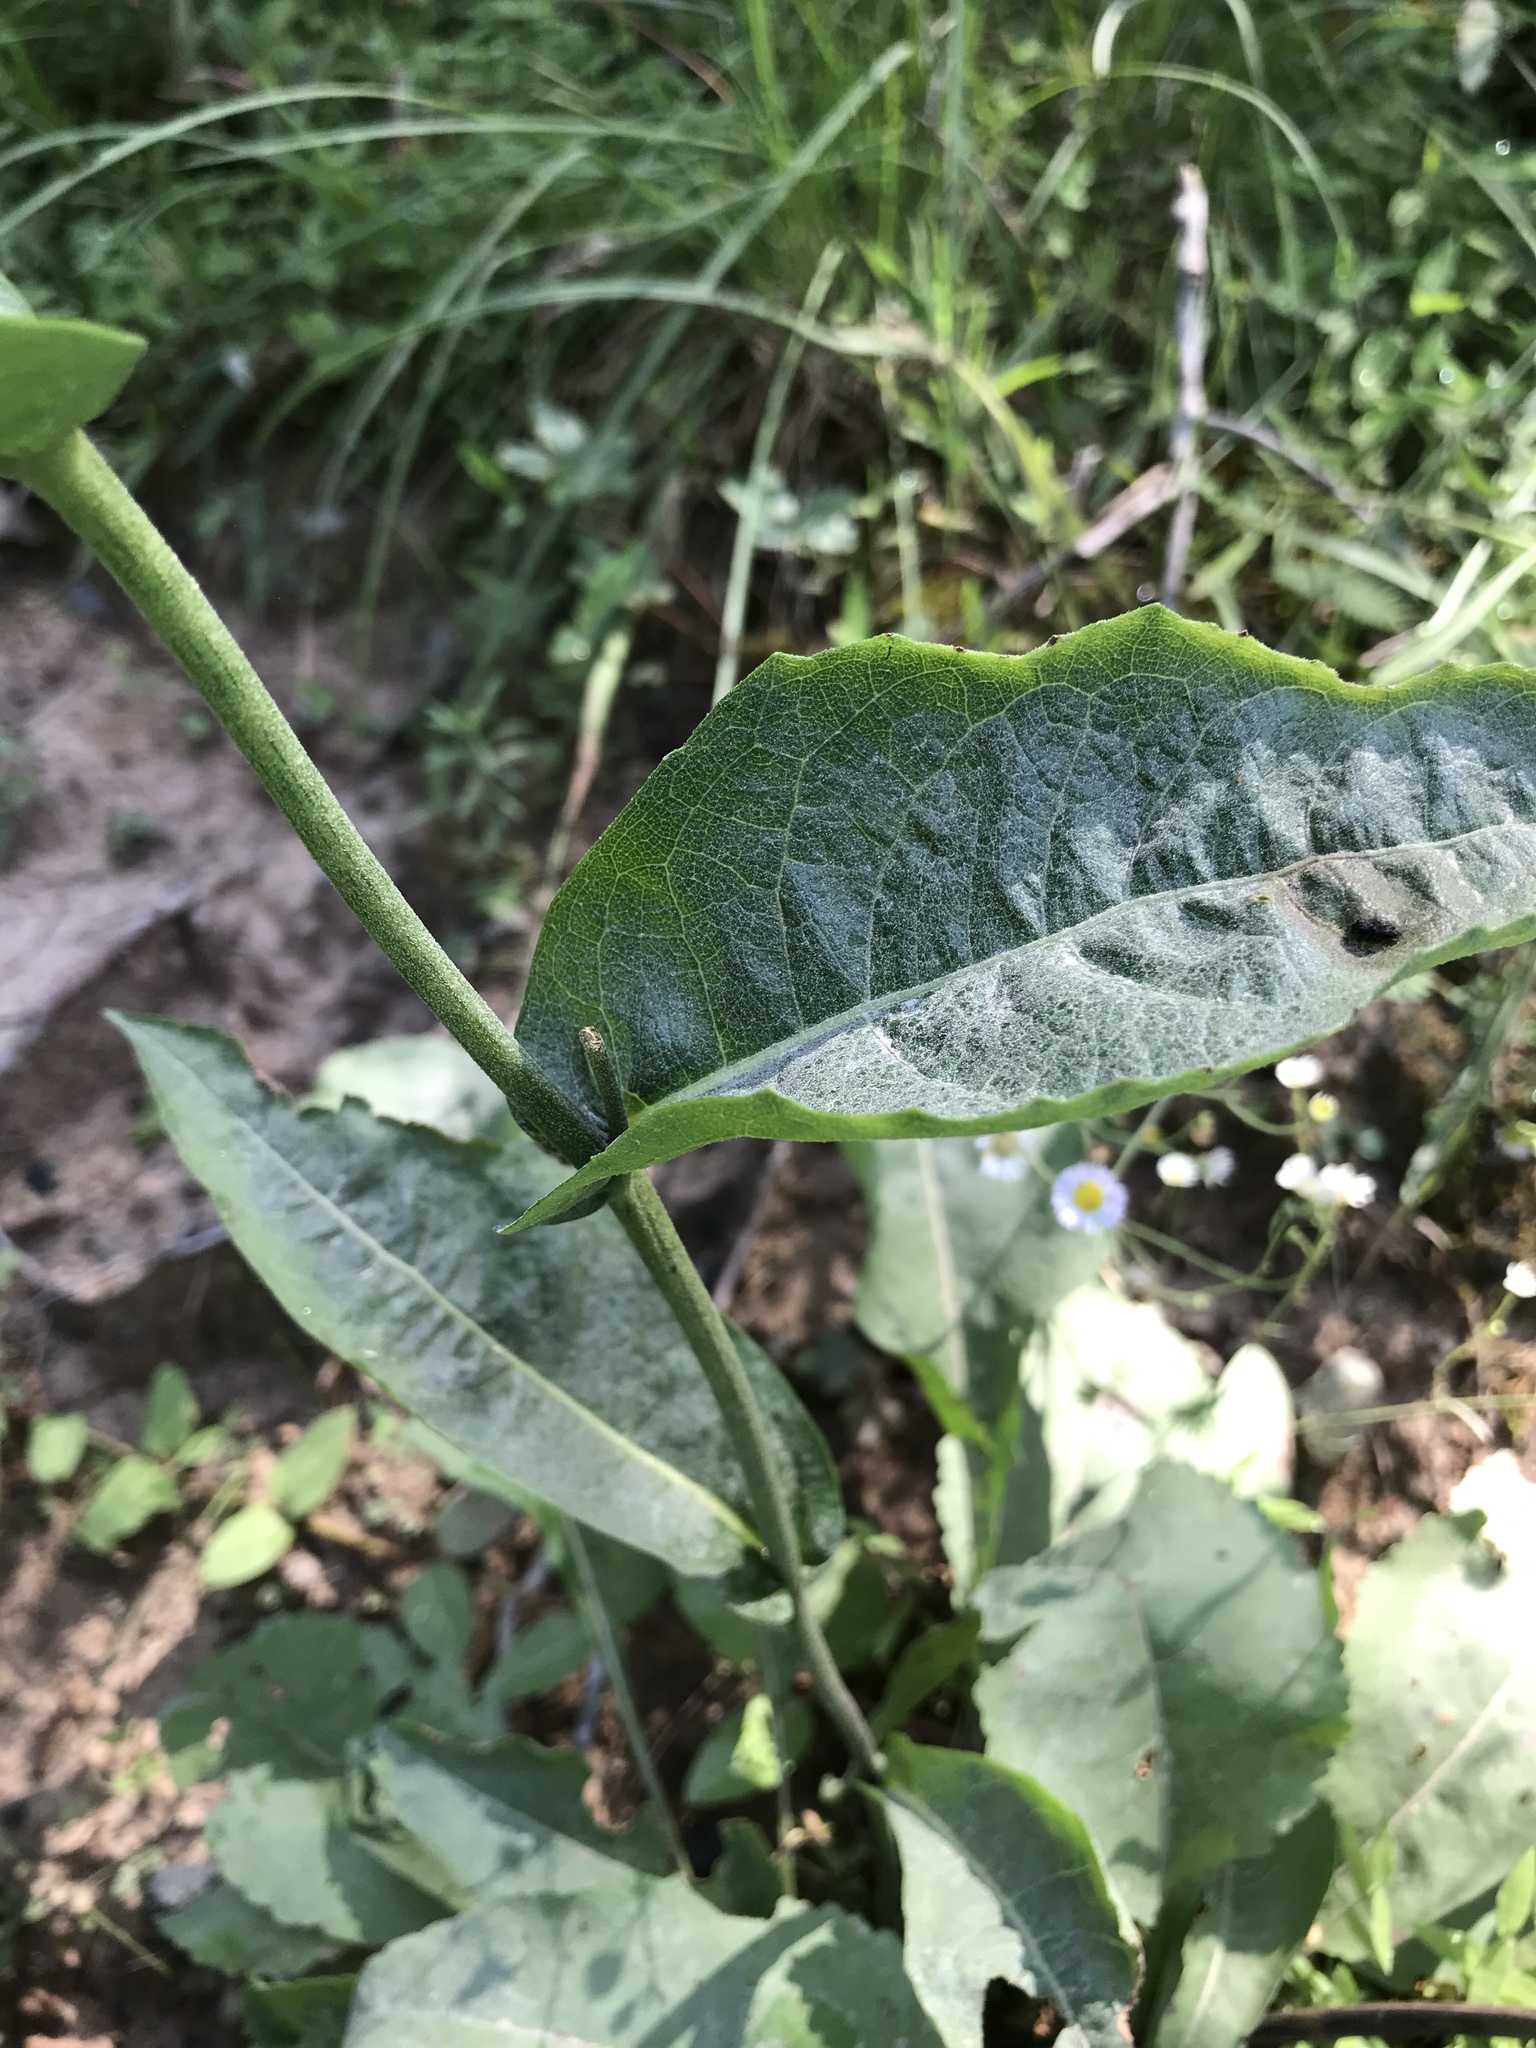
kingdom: Plantae
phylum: Tracheophyta
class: Magnoliopsida
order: Asterales
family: Asteraceae
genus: Parthenium
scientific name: Parthenium integrifolium
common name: American feverfew
